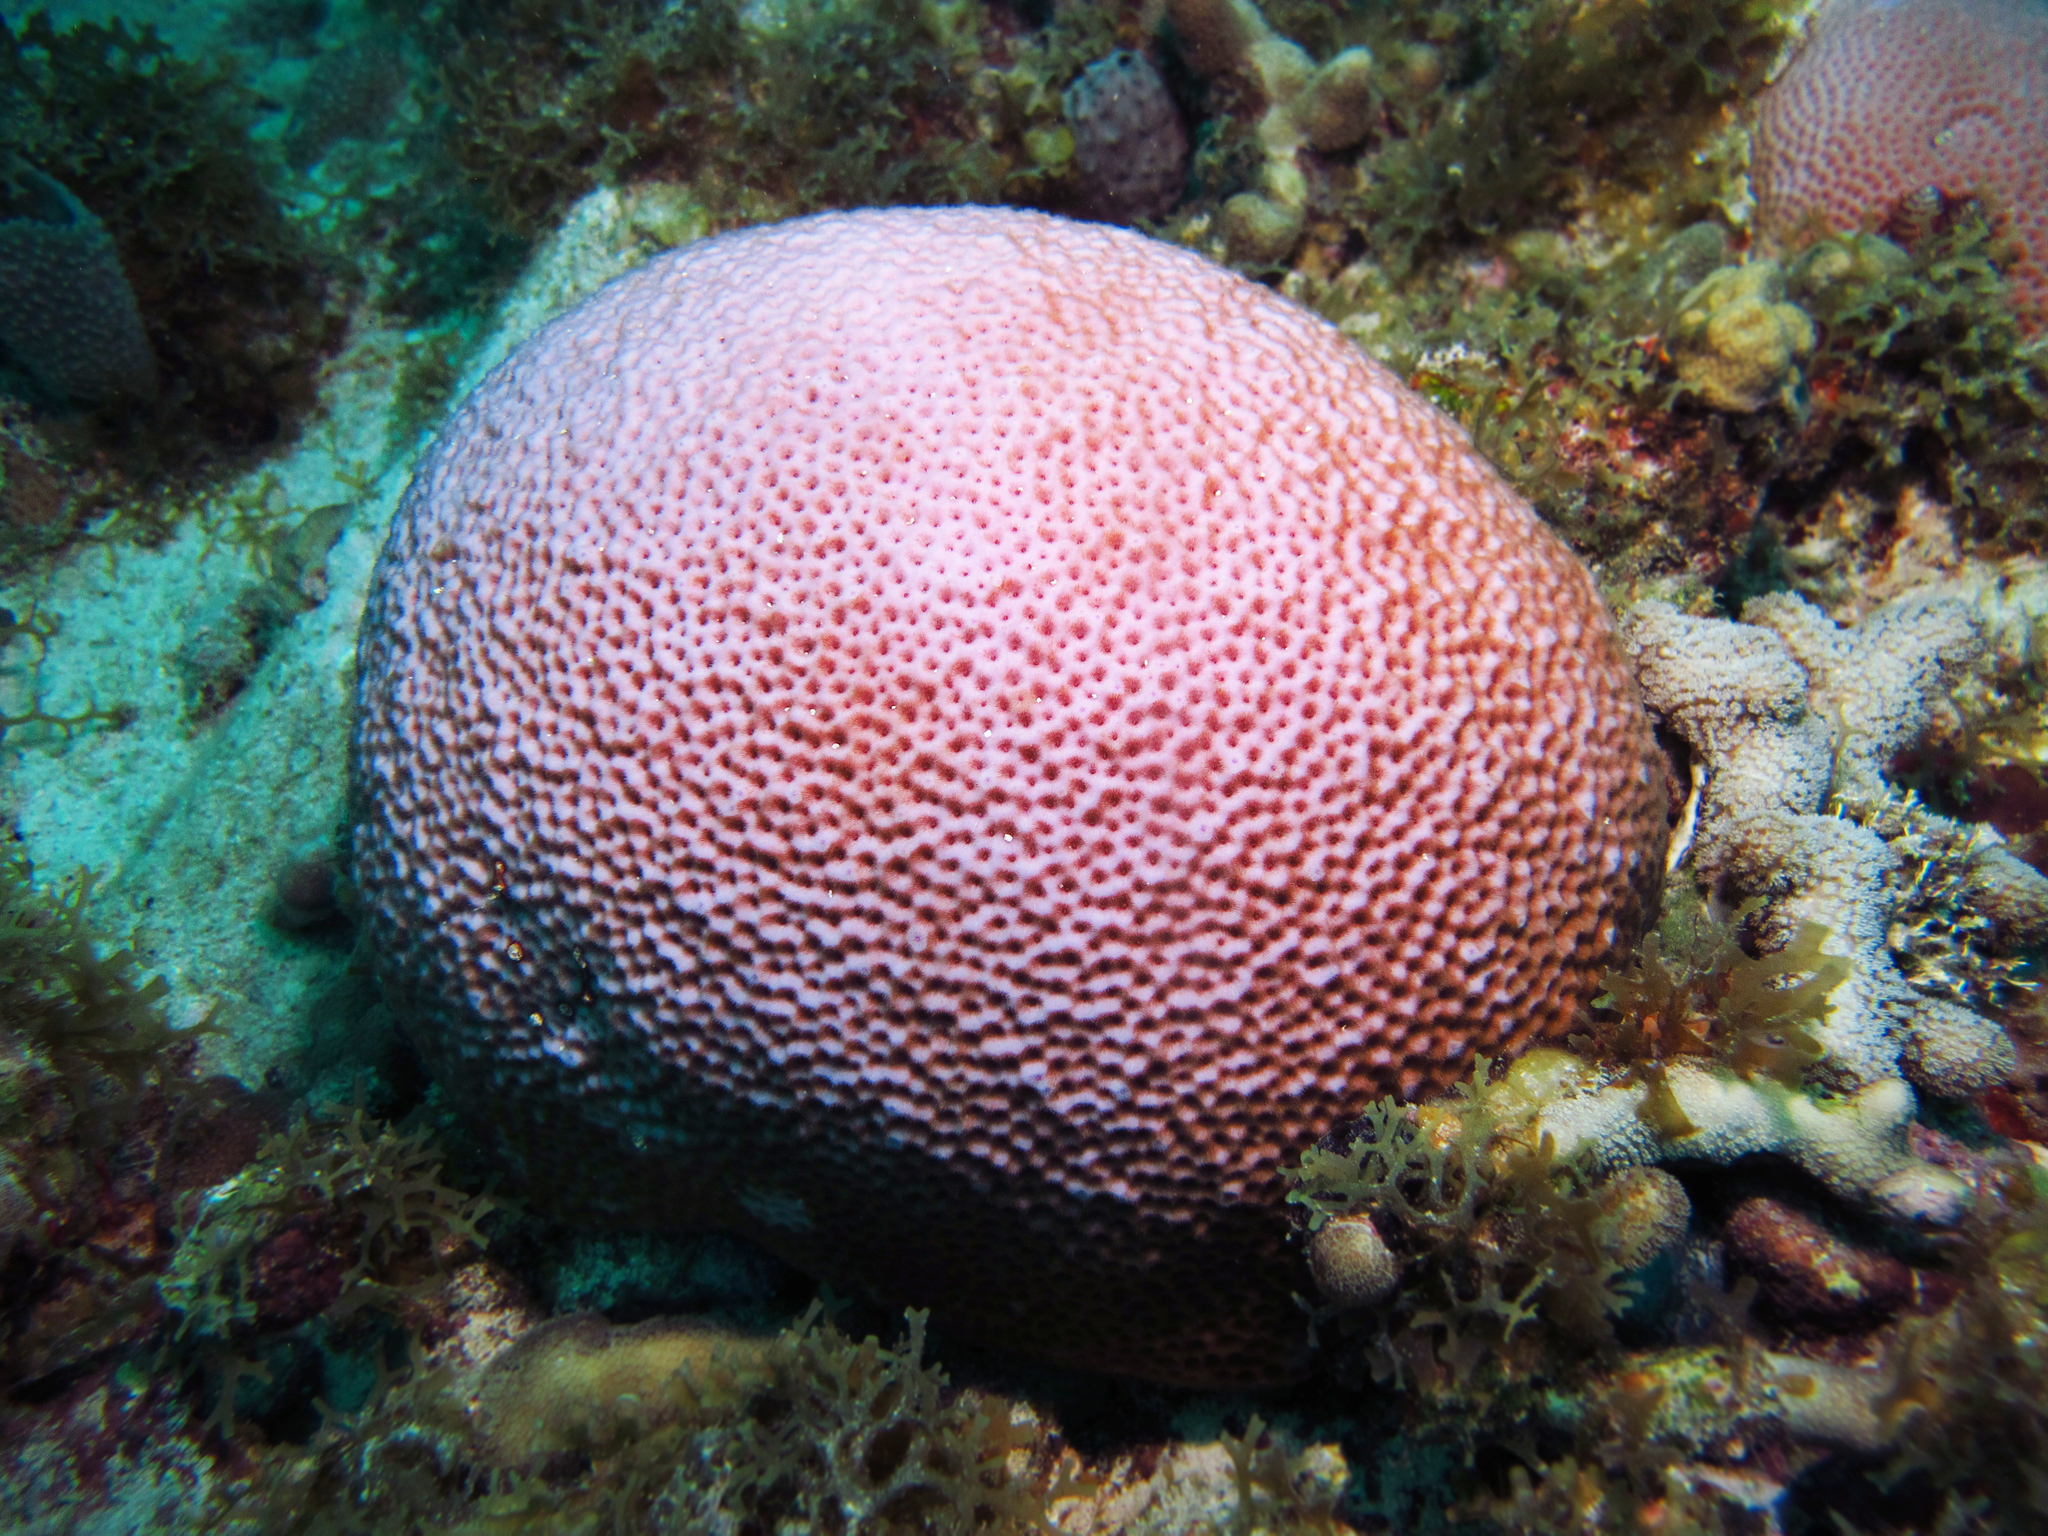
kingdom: Animalia
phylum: Cnidaria
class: Anthozoa
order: Scleractinia
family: Rhizangiidae
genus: Siderastrea
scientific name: Siderastrea siderea
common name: Massive starlet coral
